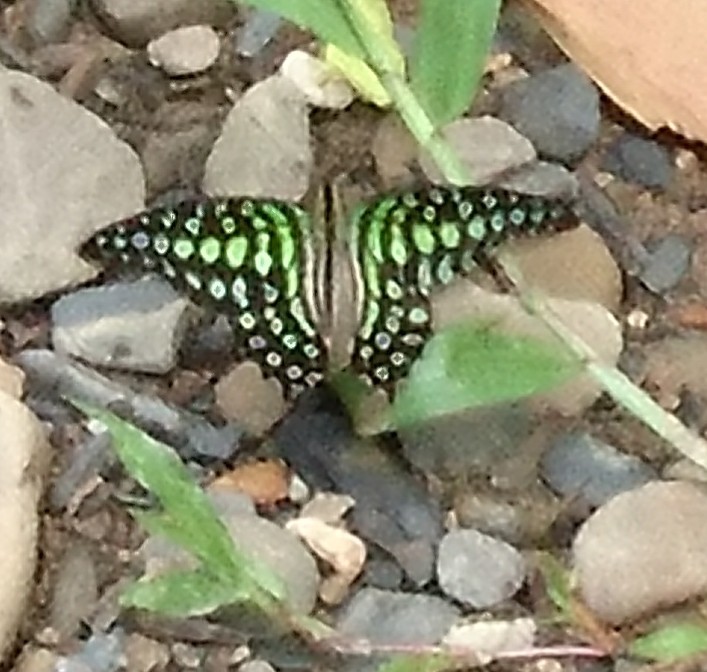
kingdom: Animalia
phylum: Arthropoda
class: Insecta
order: Lepidoptera
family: Papilionidae
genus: Graphium
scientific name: Graphium agamemnon
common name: Tailed jay
